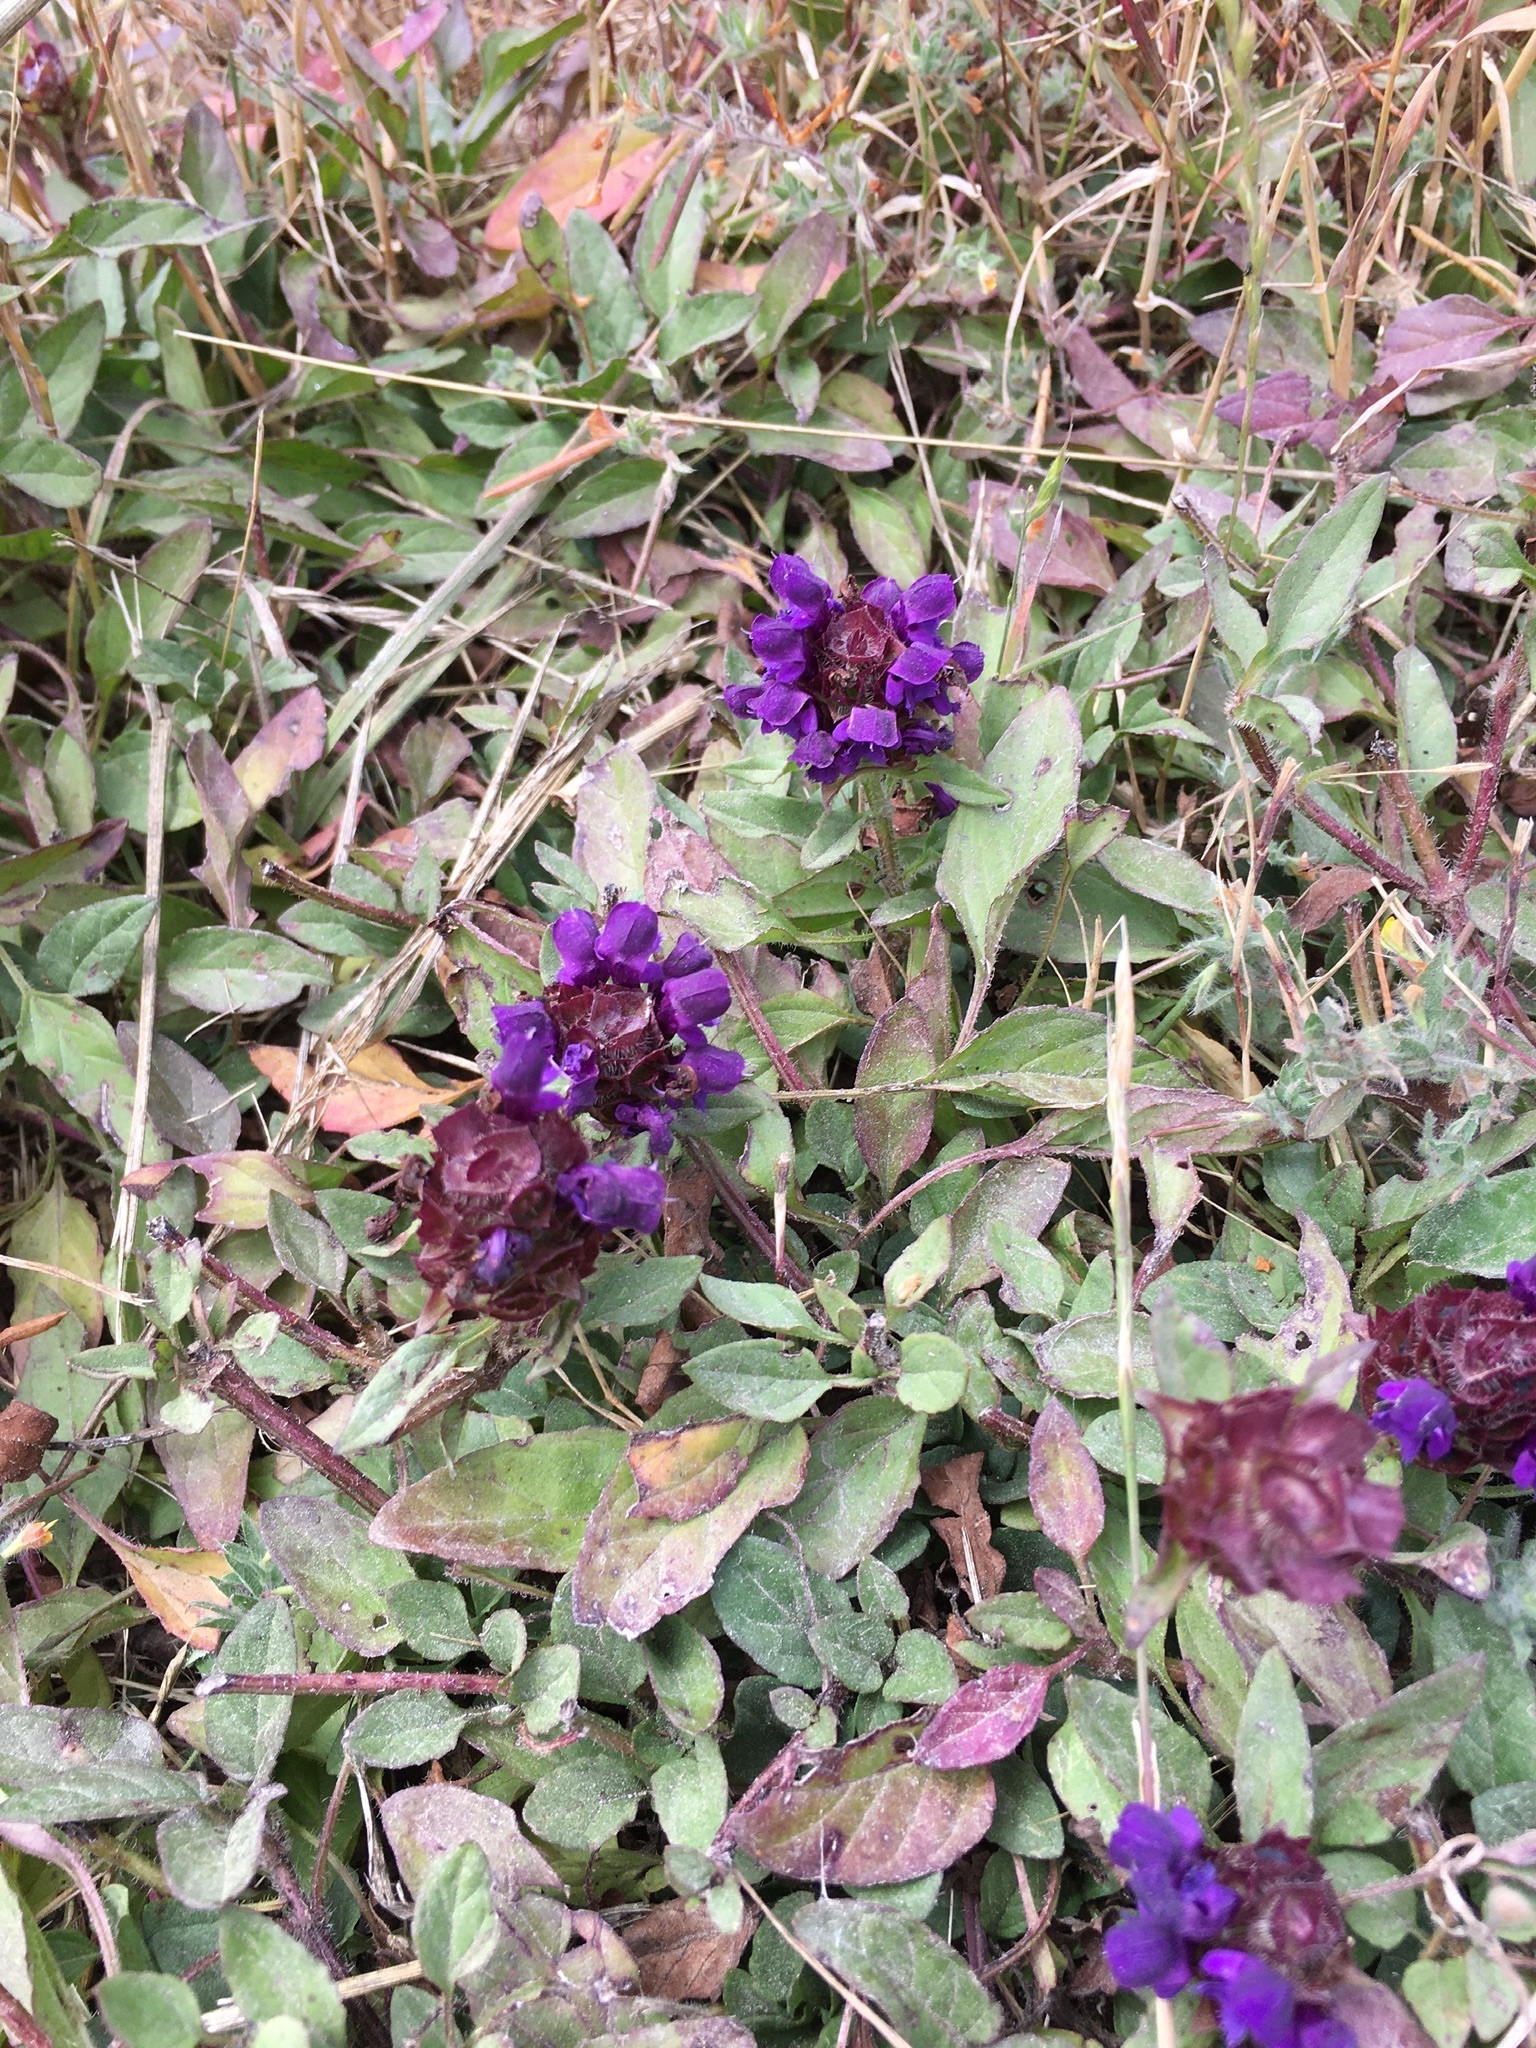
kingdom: Plantae
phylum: Tracheophyta
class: Magnoliopsida
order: Lamiales
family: Lamiaceae
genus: Prunella
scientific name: Prunella vulgaris
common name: Heal-all
